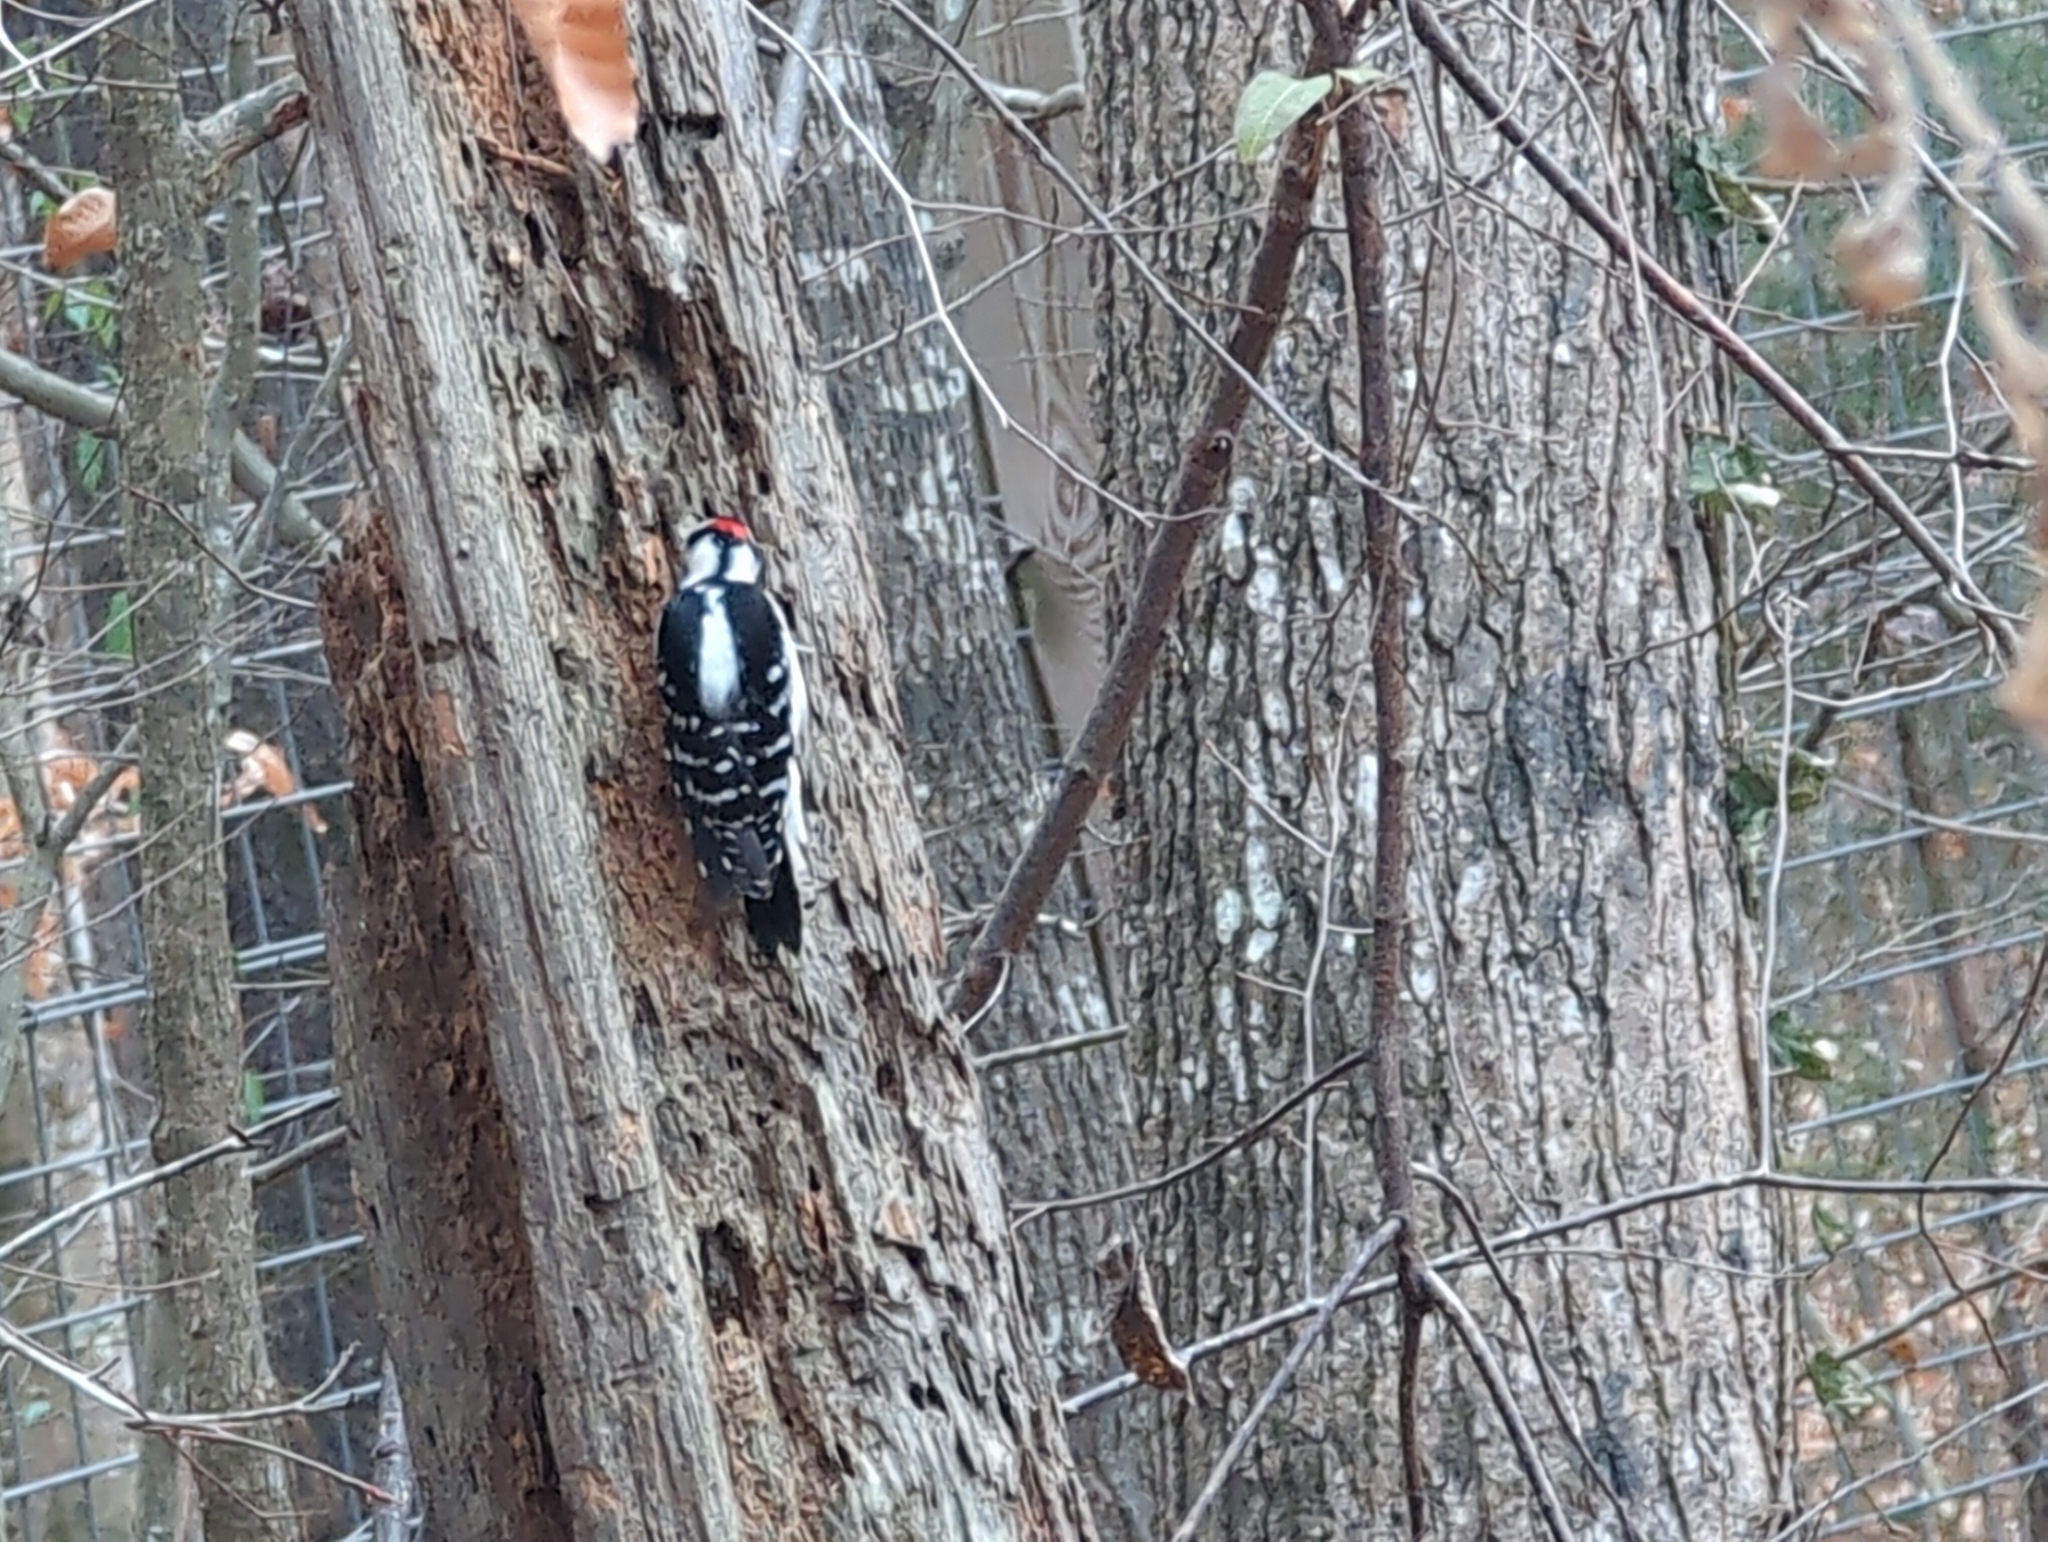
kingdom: Animalia
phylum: Chordata
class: Aves
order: Piciformes
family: Picidae
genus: Dryobates
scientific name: Dryobates pubescens
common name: Downy woodpecker
